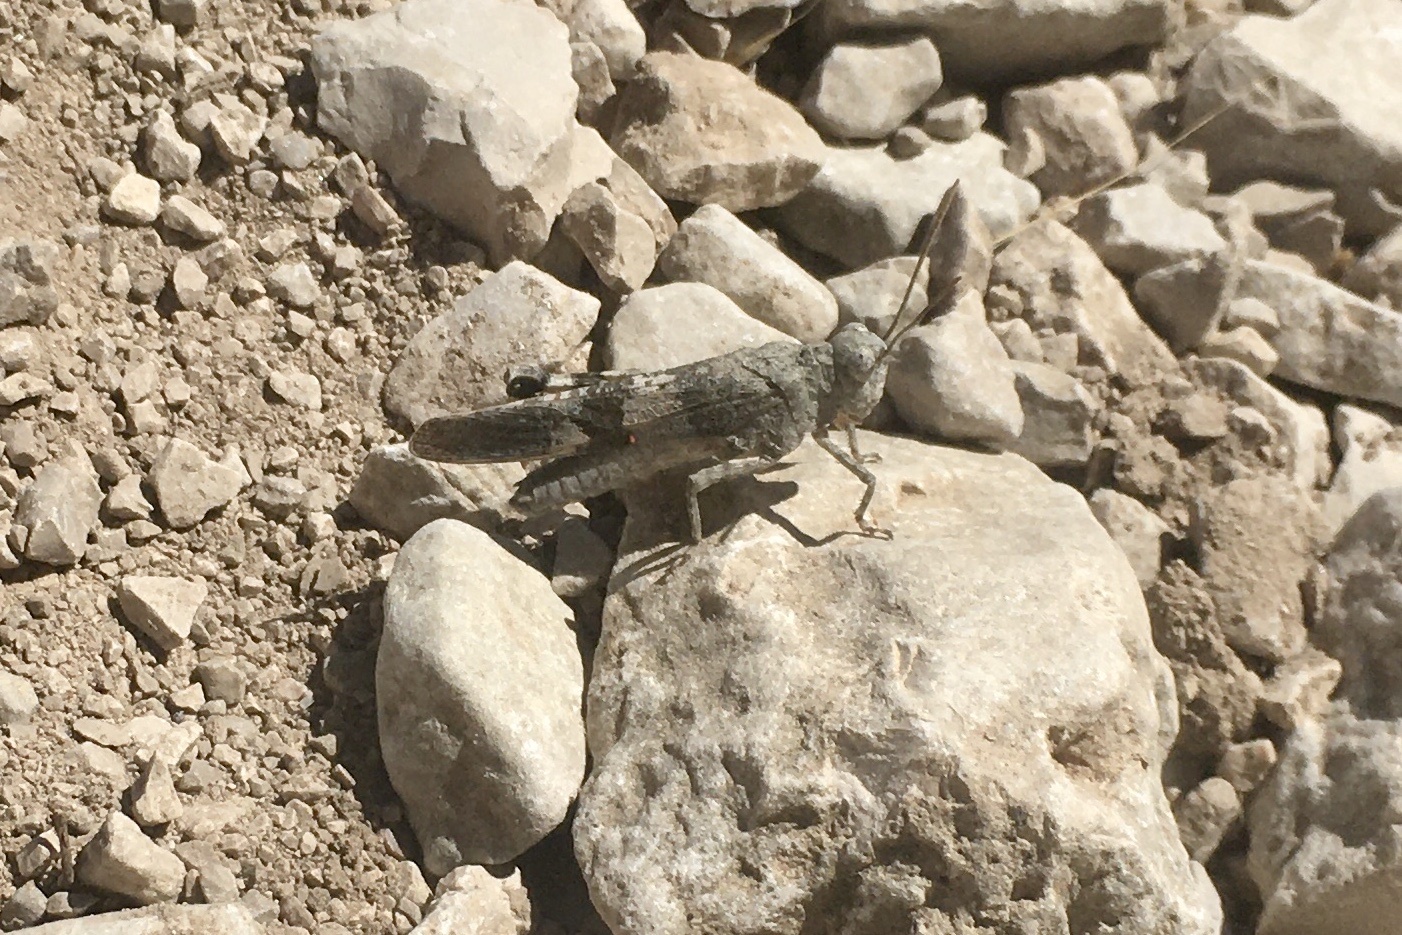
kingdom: Animalia
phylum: Arthropoda
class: Insecta
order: Orthoptera
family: Acrididae
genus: Oedipoda
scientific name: Oedipoda germanica
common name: Red band-winged grasshopper
